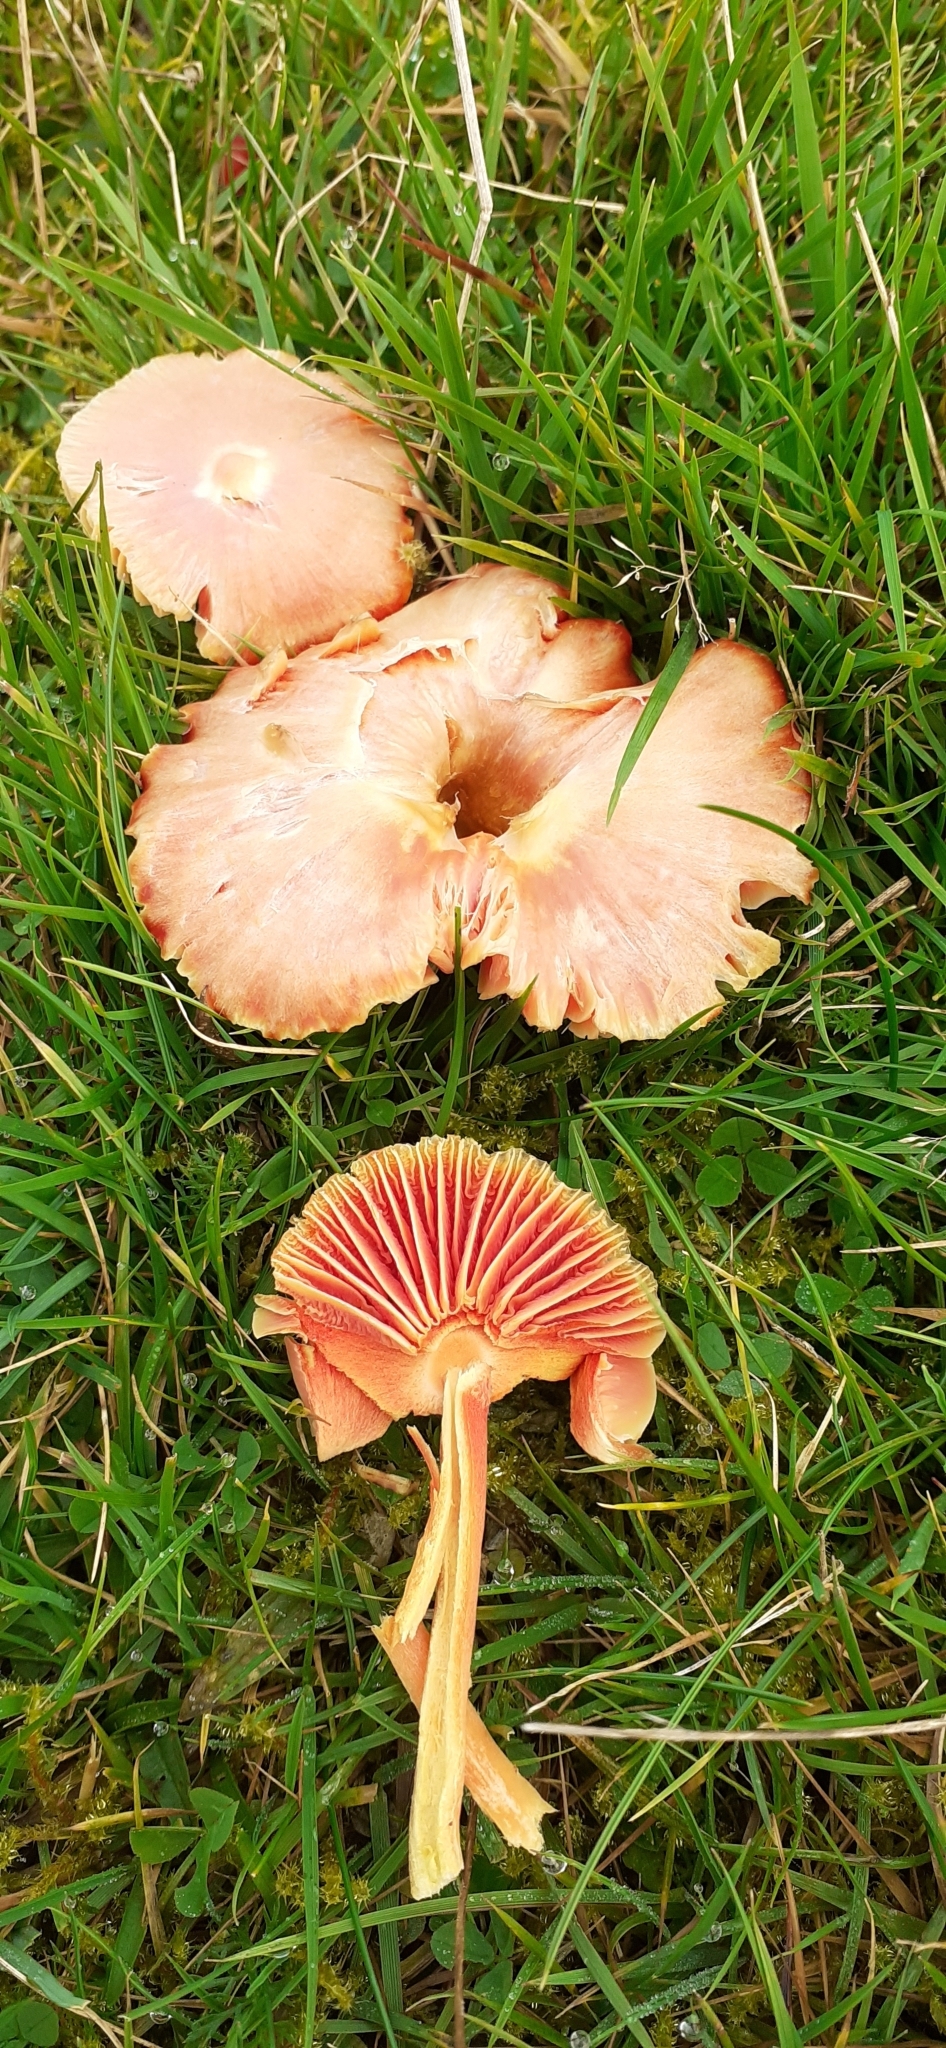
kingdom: Fungi
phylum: Basidiomycota
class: Agaricomycetes
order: Agaricales
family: Hygrophoraceae
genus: Hygrocybe
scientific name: Hygrocybe coccinea
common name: Scarlet hood
